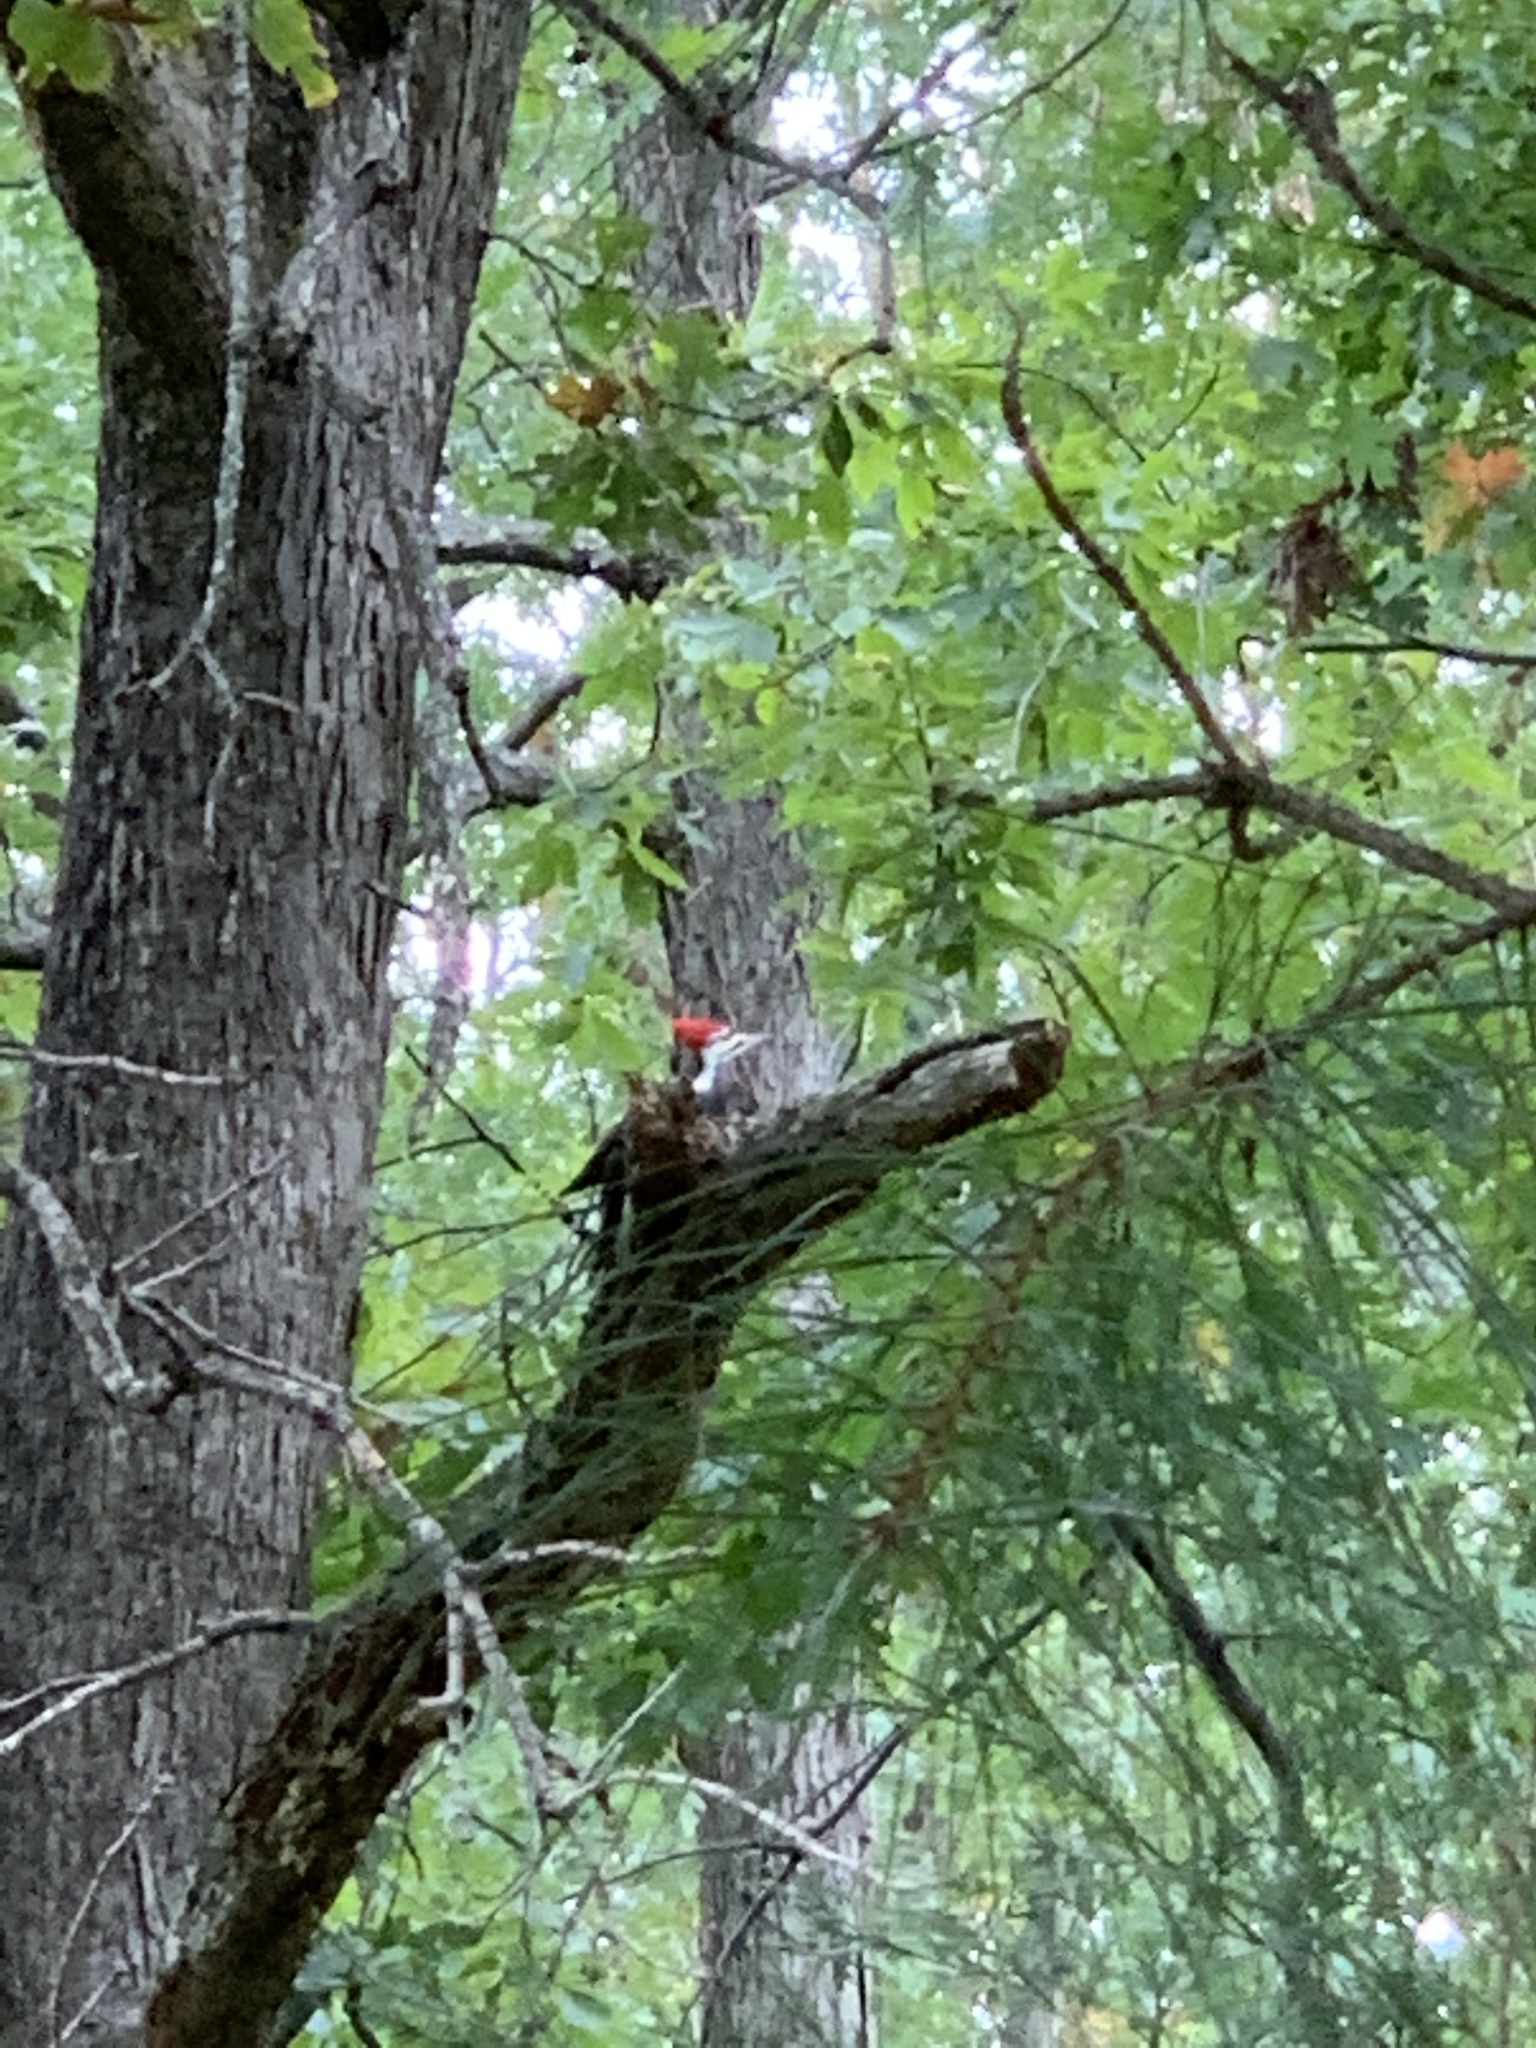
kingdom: Animalia
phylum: Chordata
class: Aves
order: Piciformes
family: Picidae
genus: Dryocopus
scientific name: Dryocopus pileatus
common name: Pileated woodpecker
